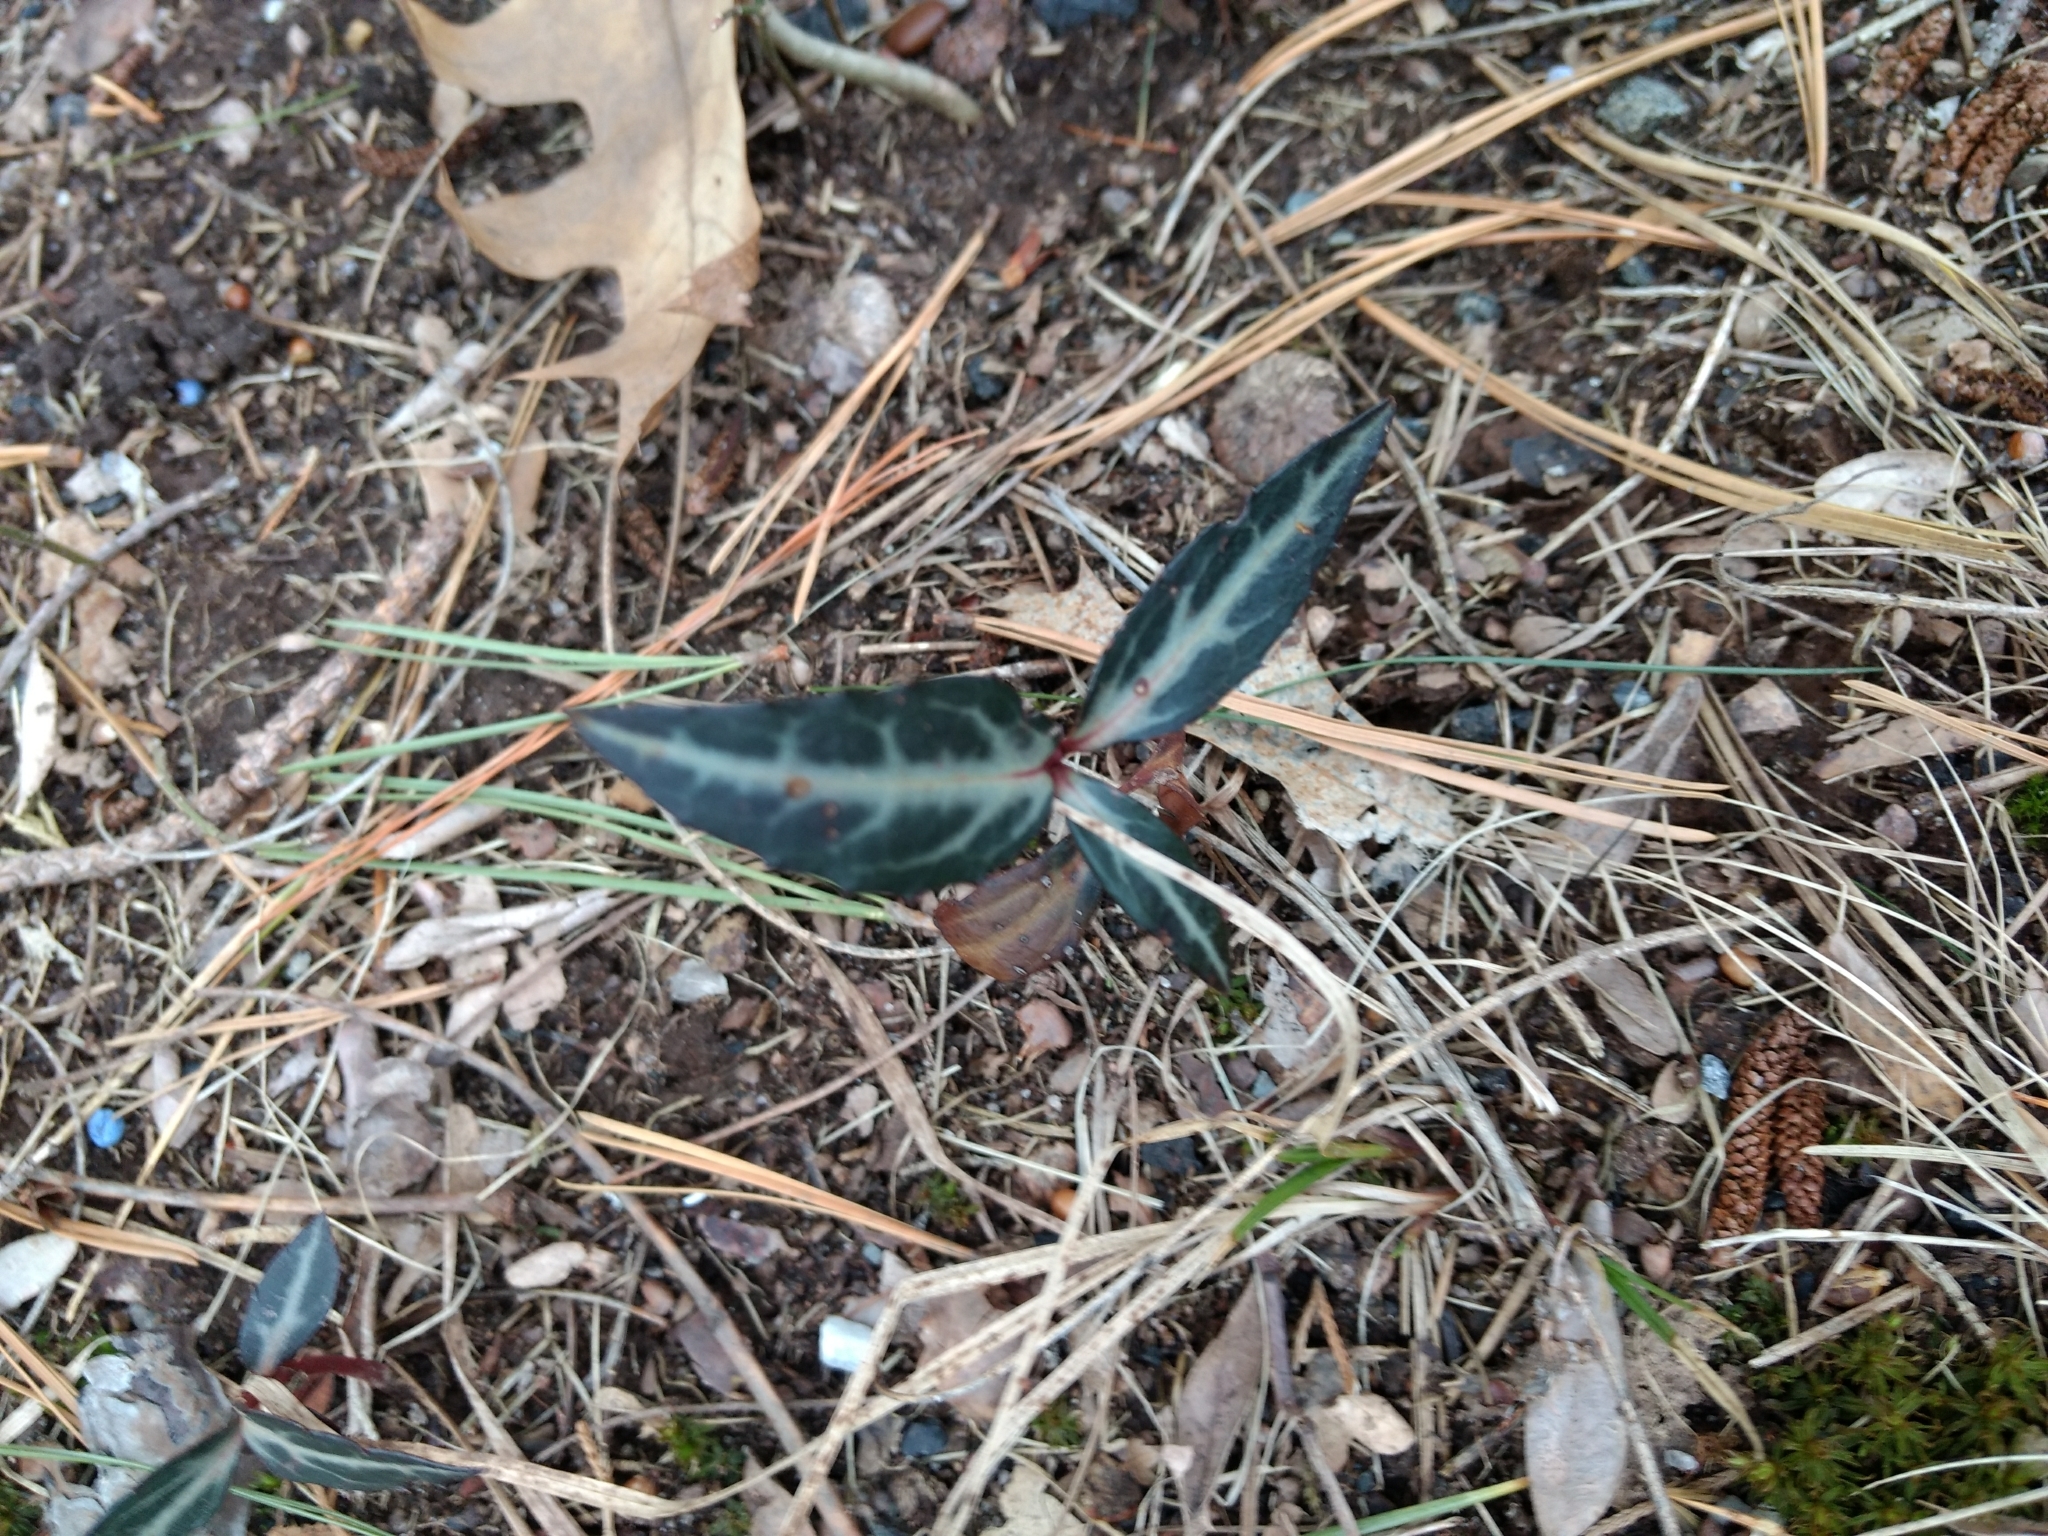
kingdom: Plantae
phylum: Tracheophyta
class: Magnoliopsida
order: Ericales
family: Ericaceae
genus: Chimaphila
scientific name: Chimaphila maculata
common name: Spotted pipsissewa
